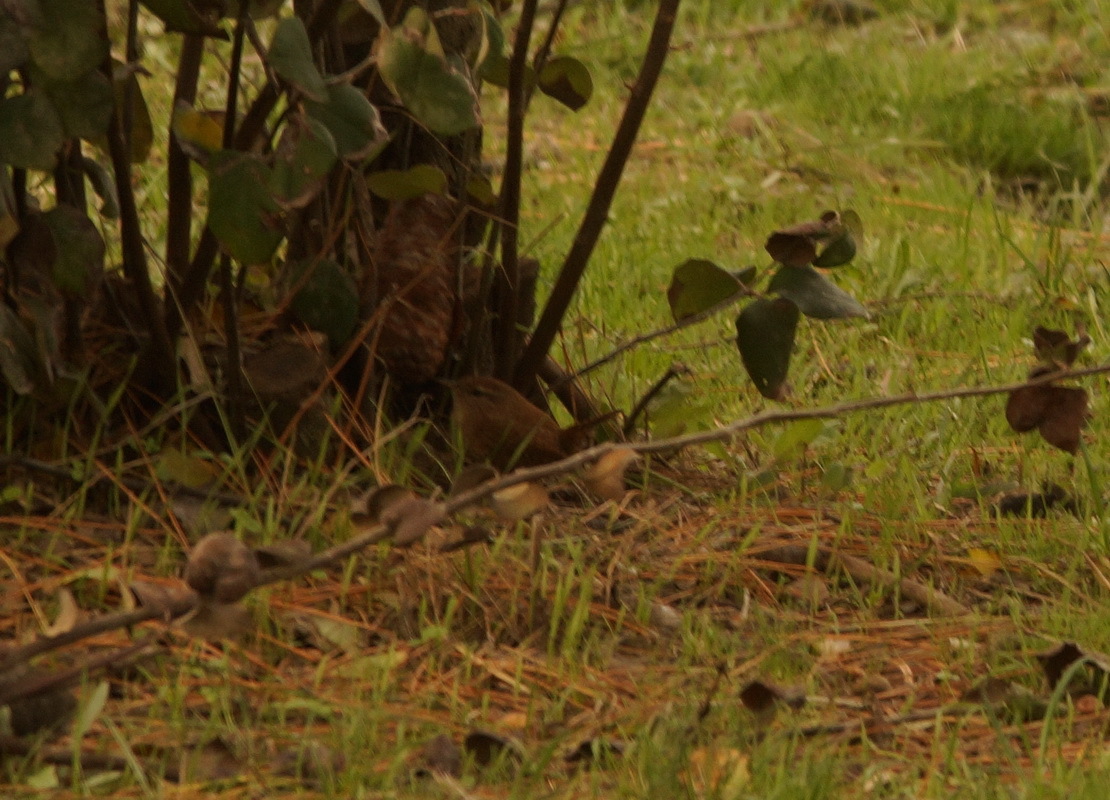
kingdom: Animalia
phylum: Chordata
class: Aves
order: Passeriformes
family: Troglodytidae
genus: Troglodytes
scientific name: Troglodytes troglodytes
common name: Eurasian wren
